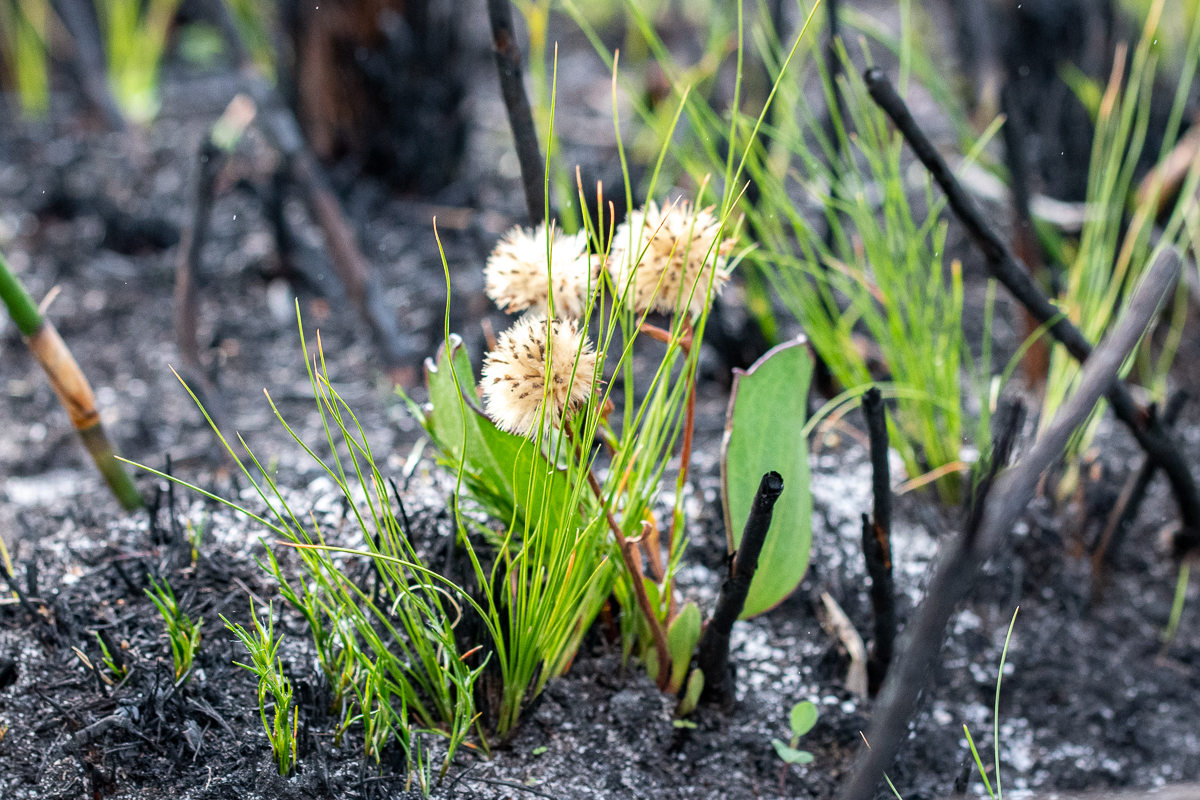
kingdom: Plantae
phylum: Tracheophyta
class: Magnoliopsida
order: Asterales
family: Asteraceae
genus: Mairia
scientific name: Mairia coriacea
